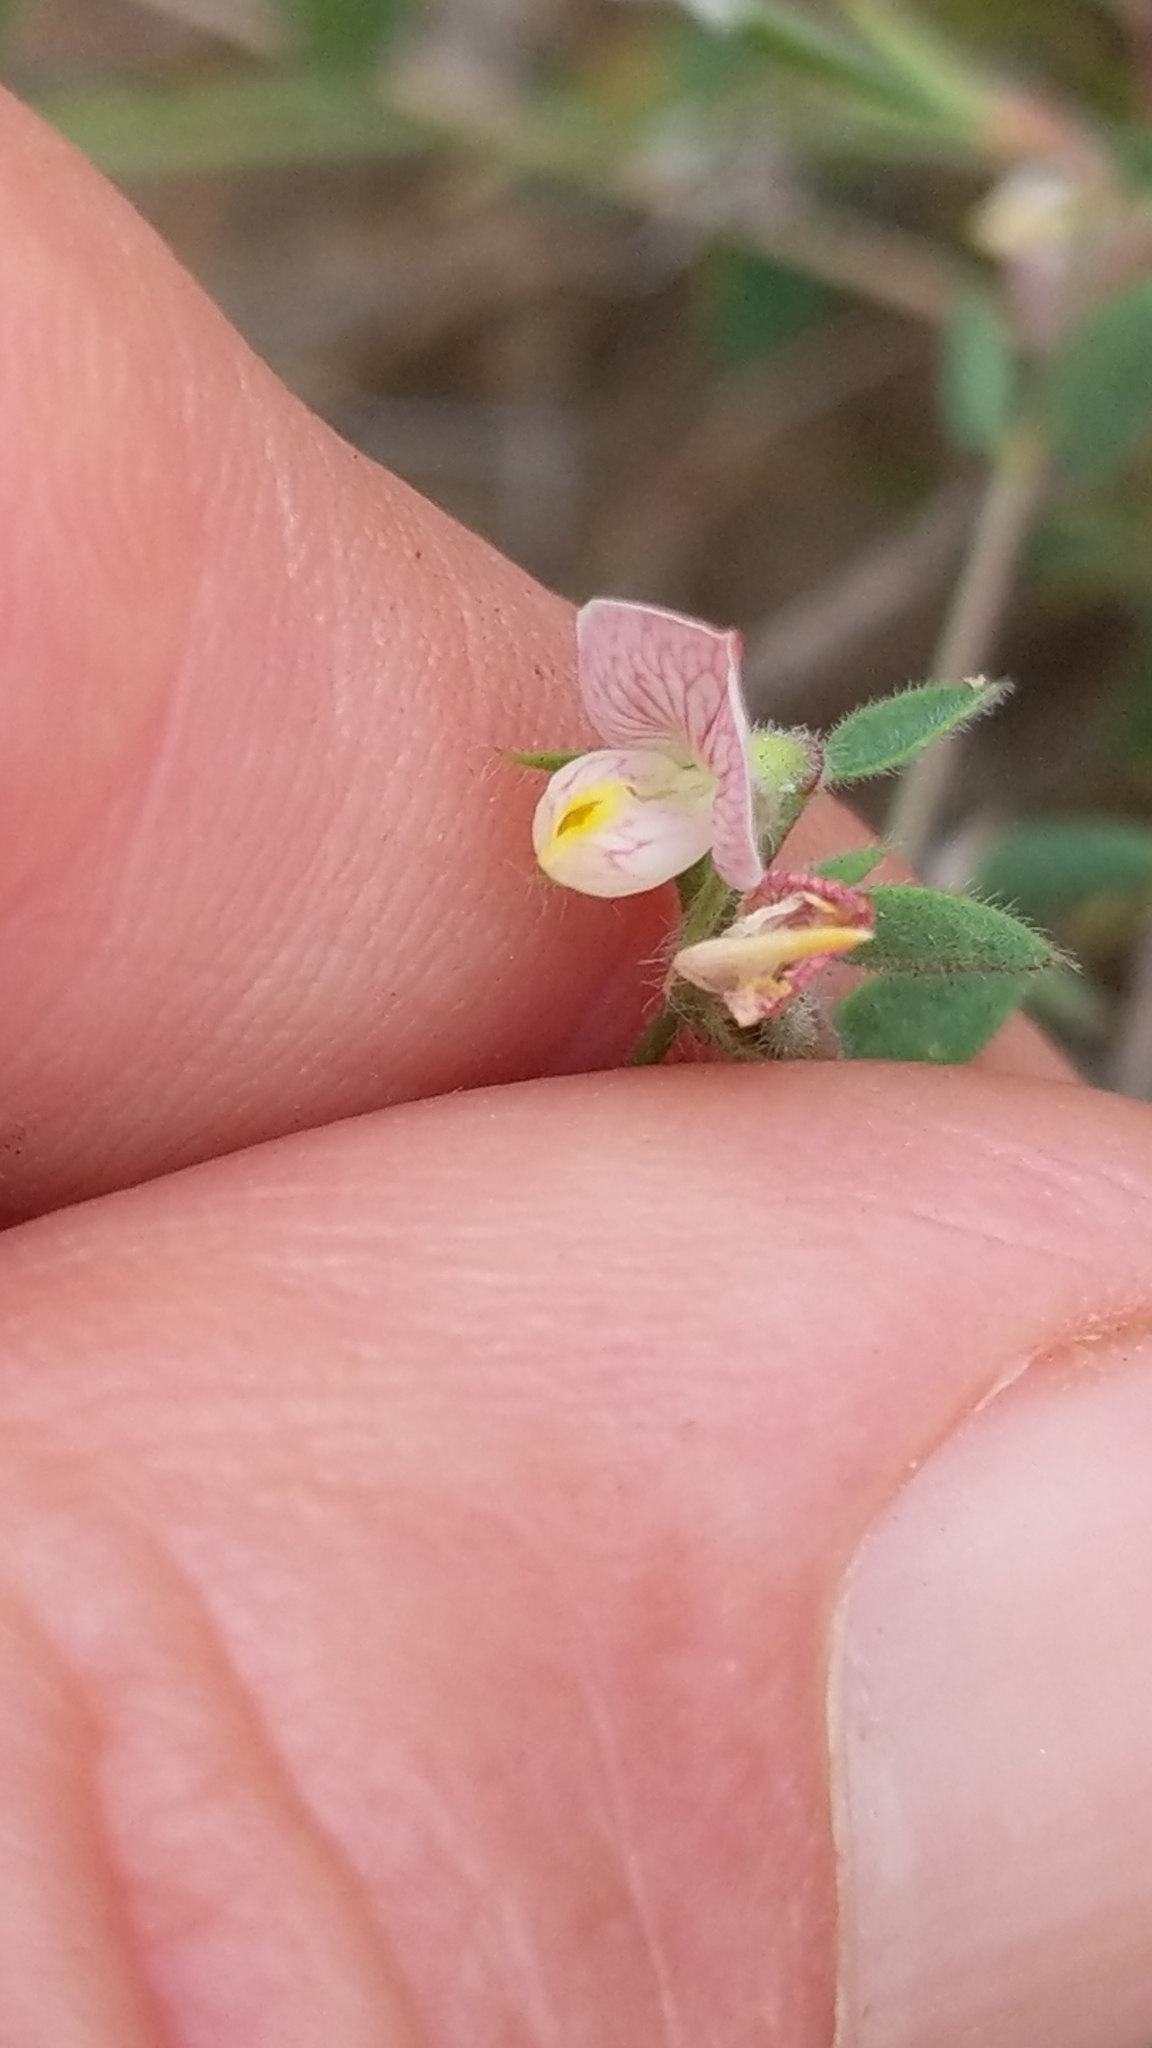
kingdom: Plantae
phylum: Tracheophyta
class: Magnoliopsida
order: Fabales
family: Fabaceae
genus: Acmispon
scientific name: Acmispon americanus
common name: American bird's-foot trefoil
